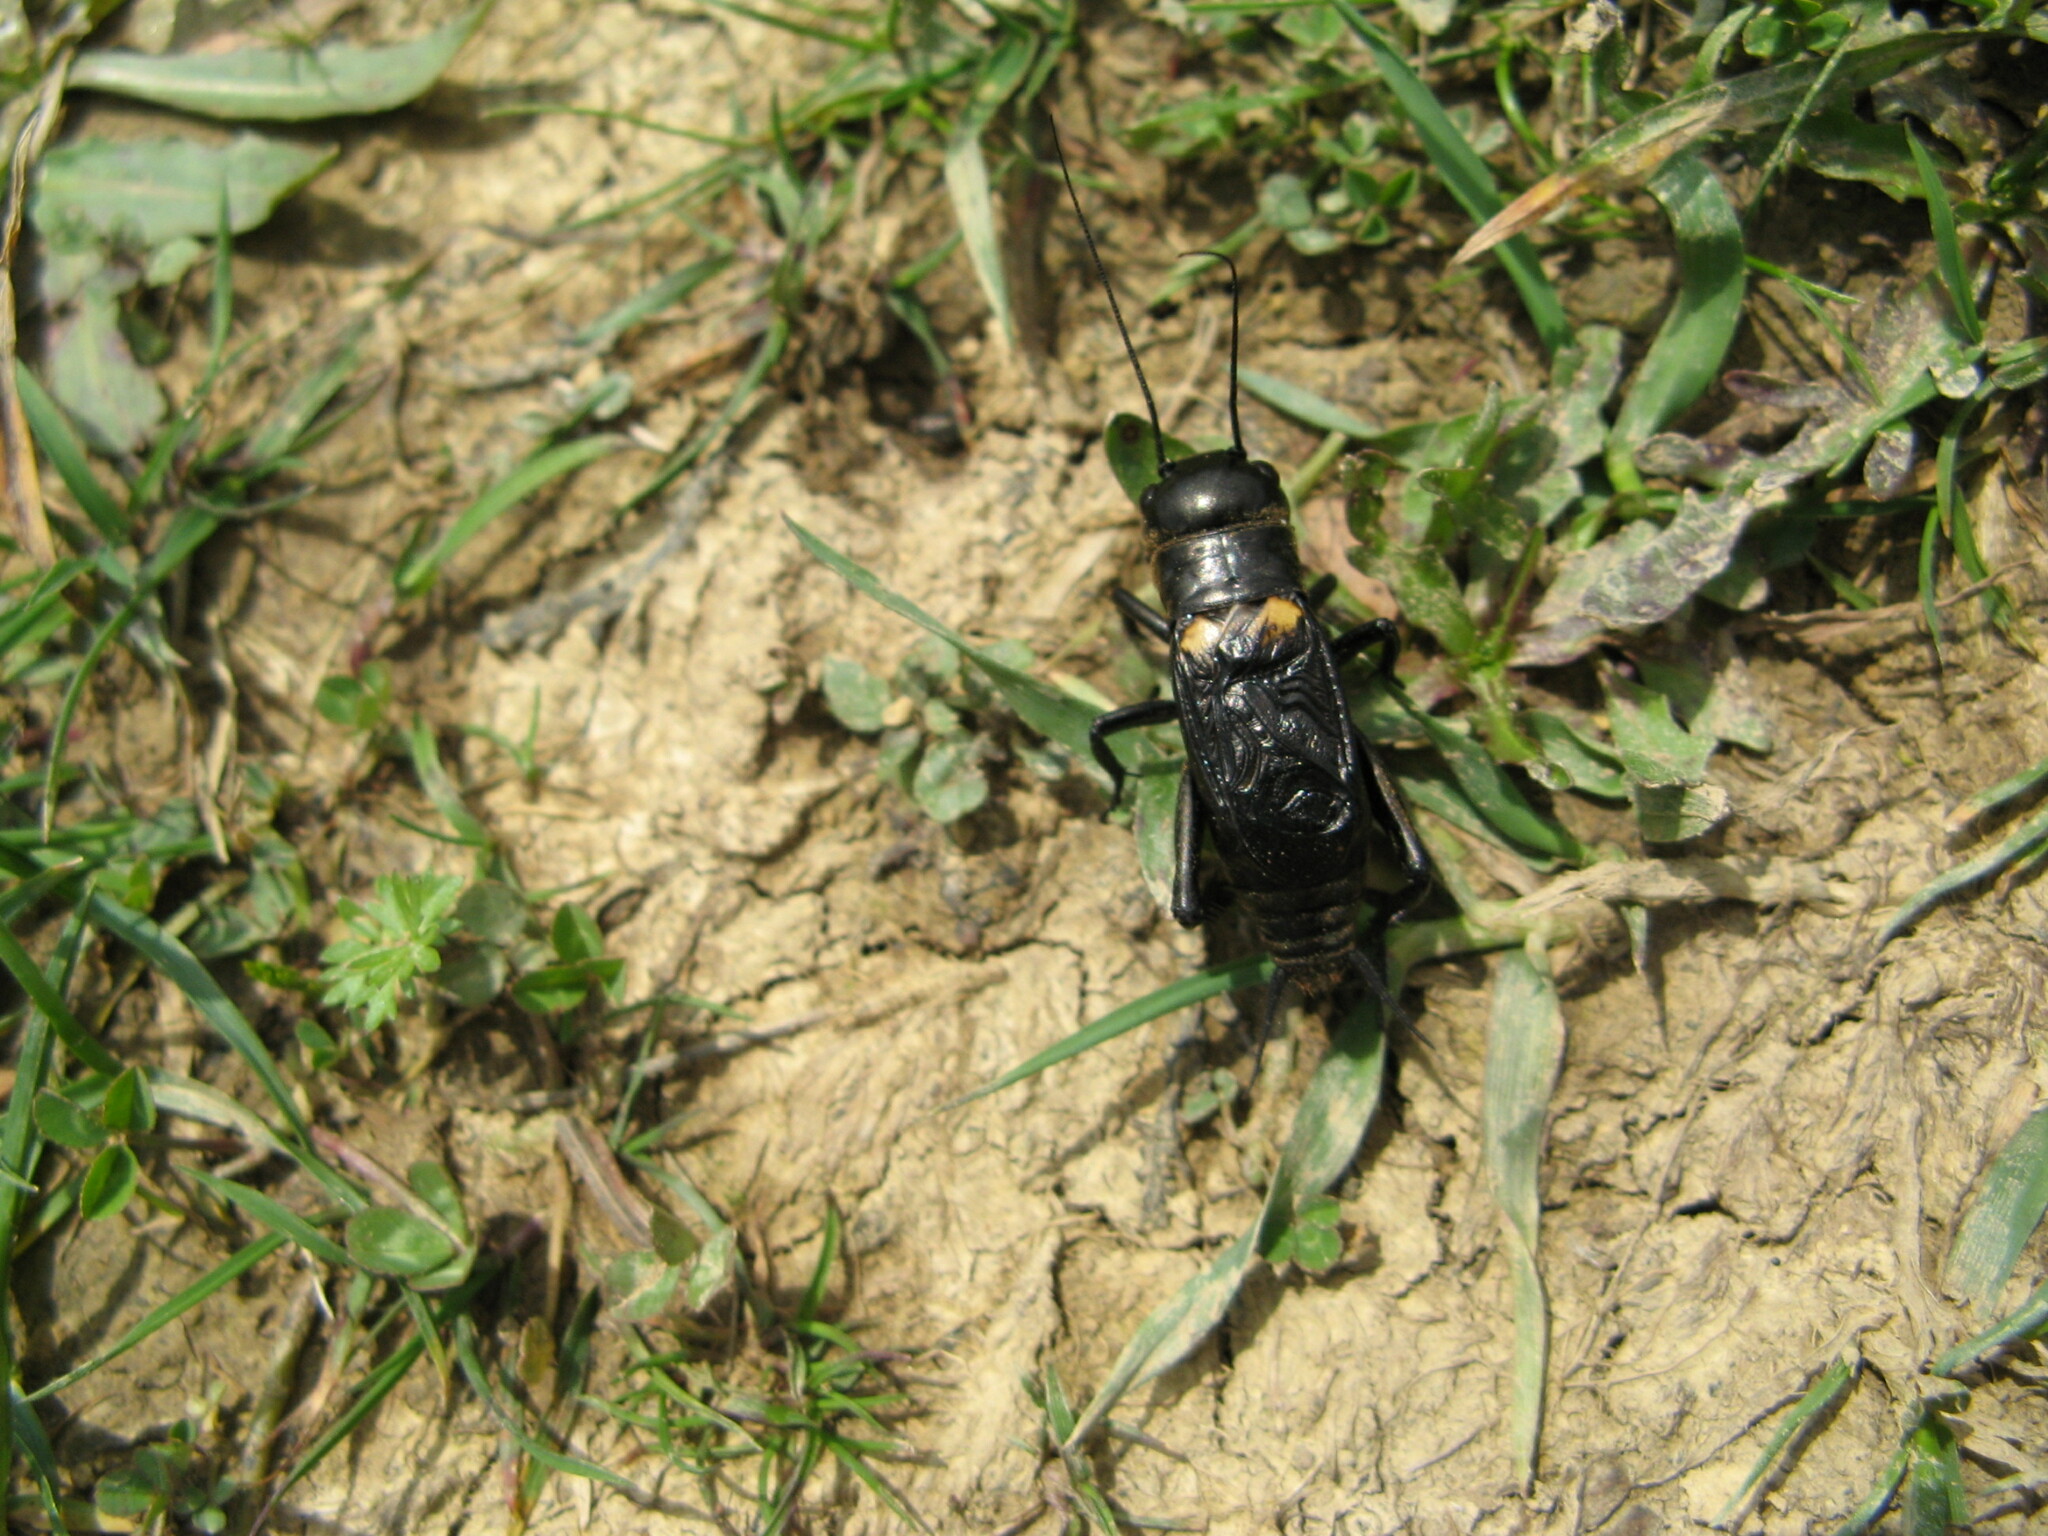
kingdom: Animalia
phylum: Arthropoda
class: Insecta
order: Orthoptera
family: Gryllidae
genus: Gryllus
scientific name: Gryllus campestris
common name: Field cricket
